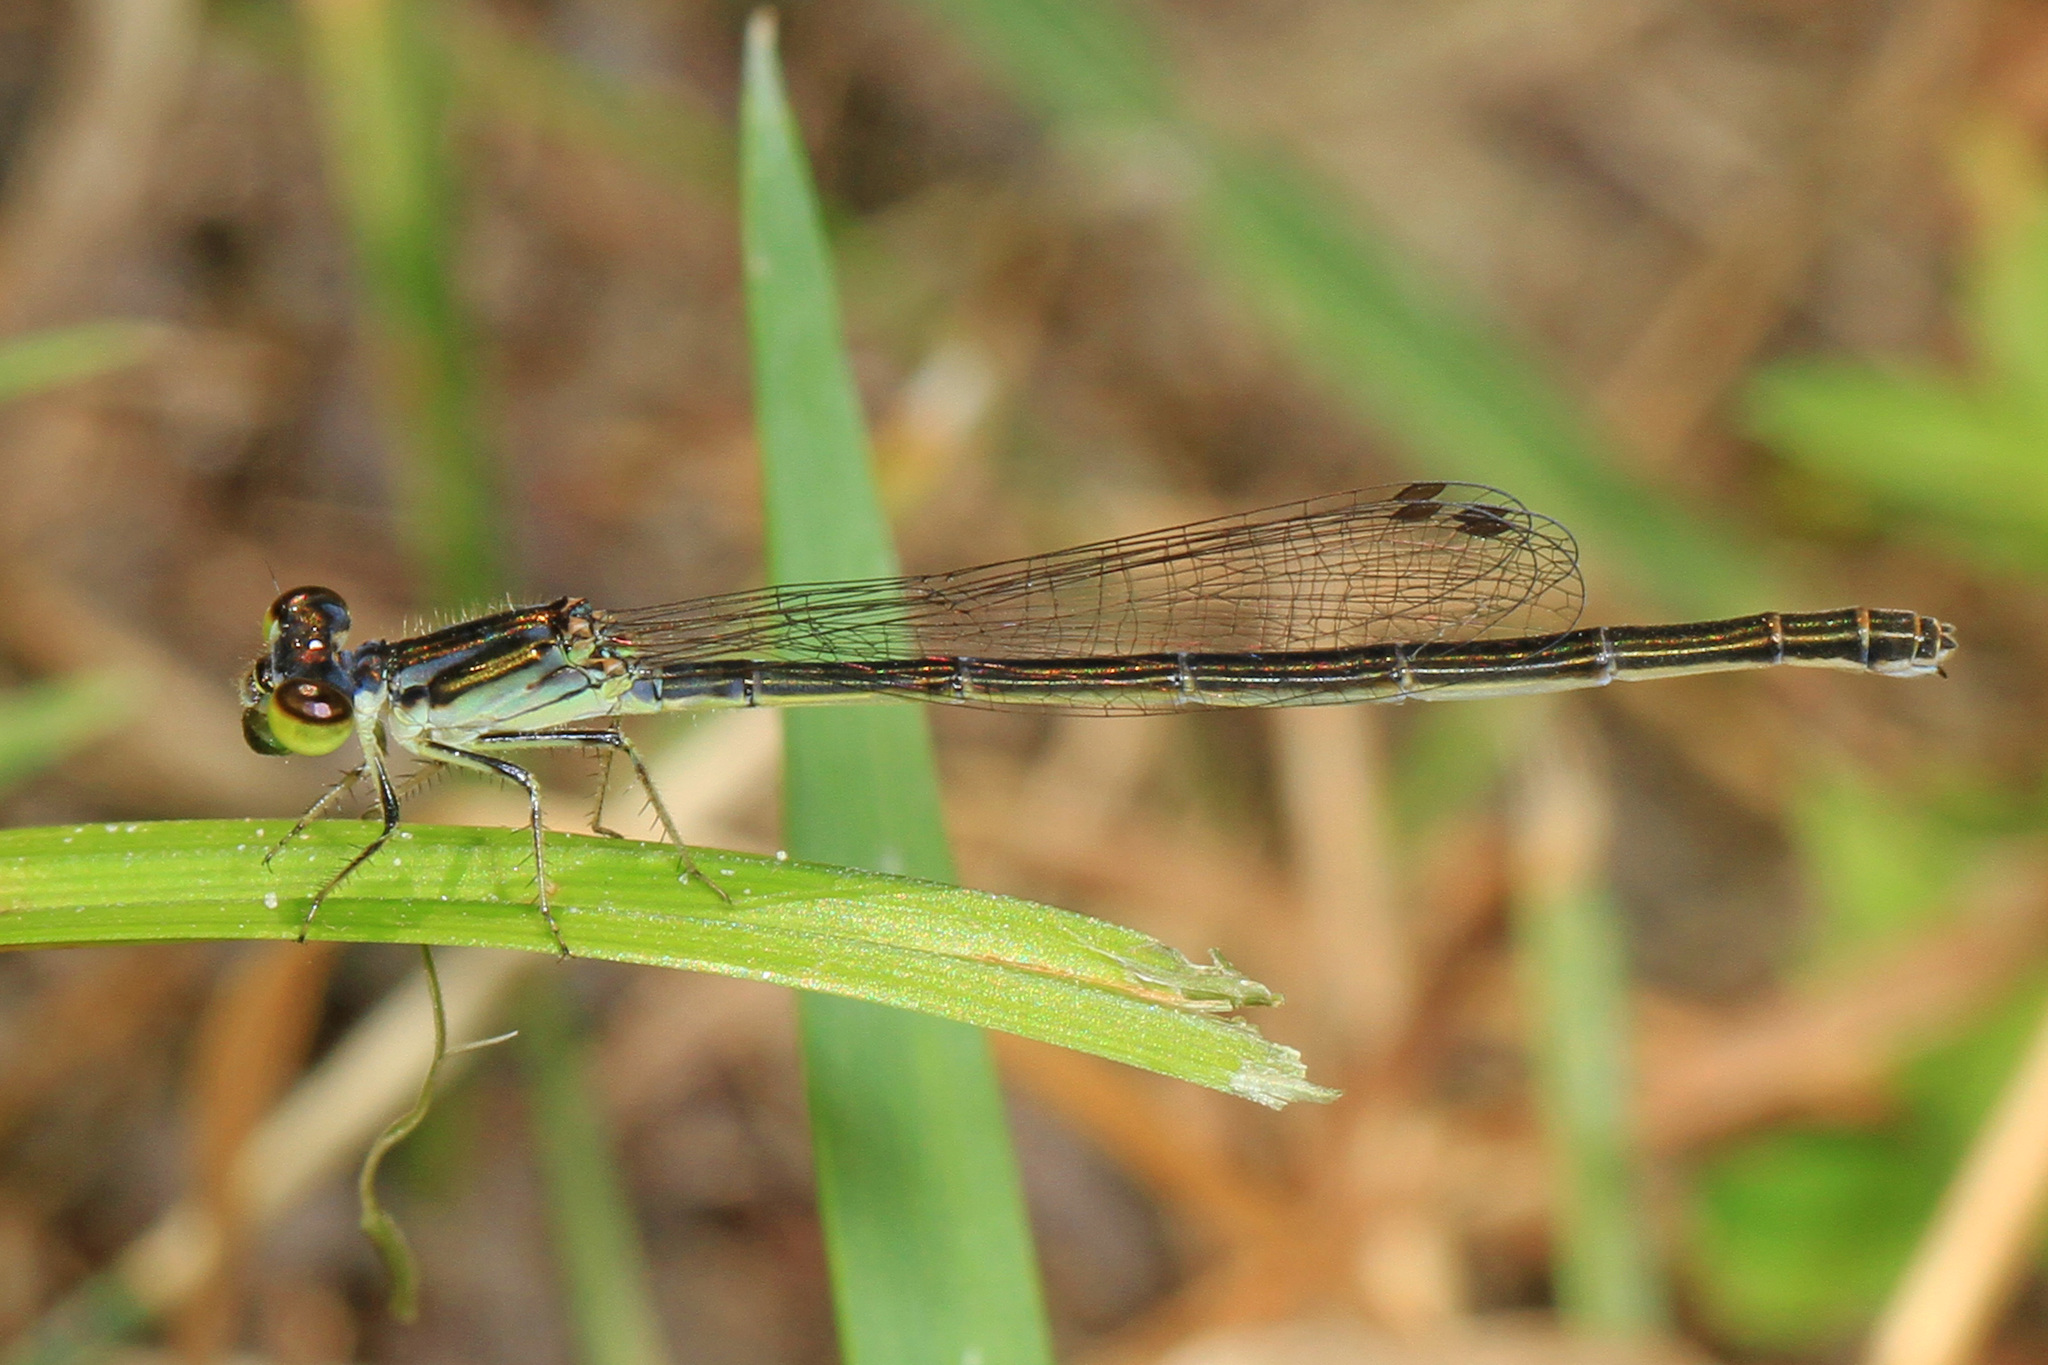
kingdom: Animalia
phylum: Arthropoda
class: Insecta
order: Odonata
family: Coenagrionidae
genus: Ischnura
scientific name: Ischnura posita
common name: Fragile forktail
